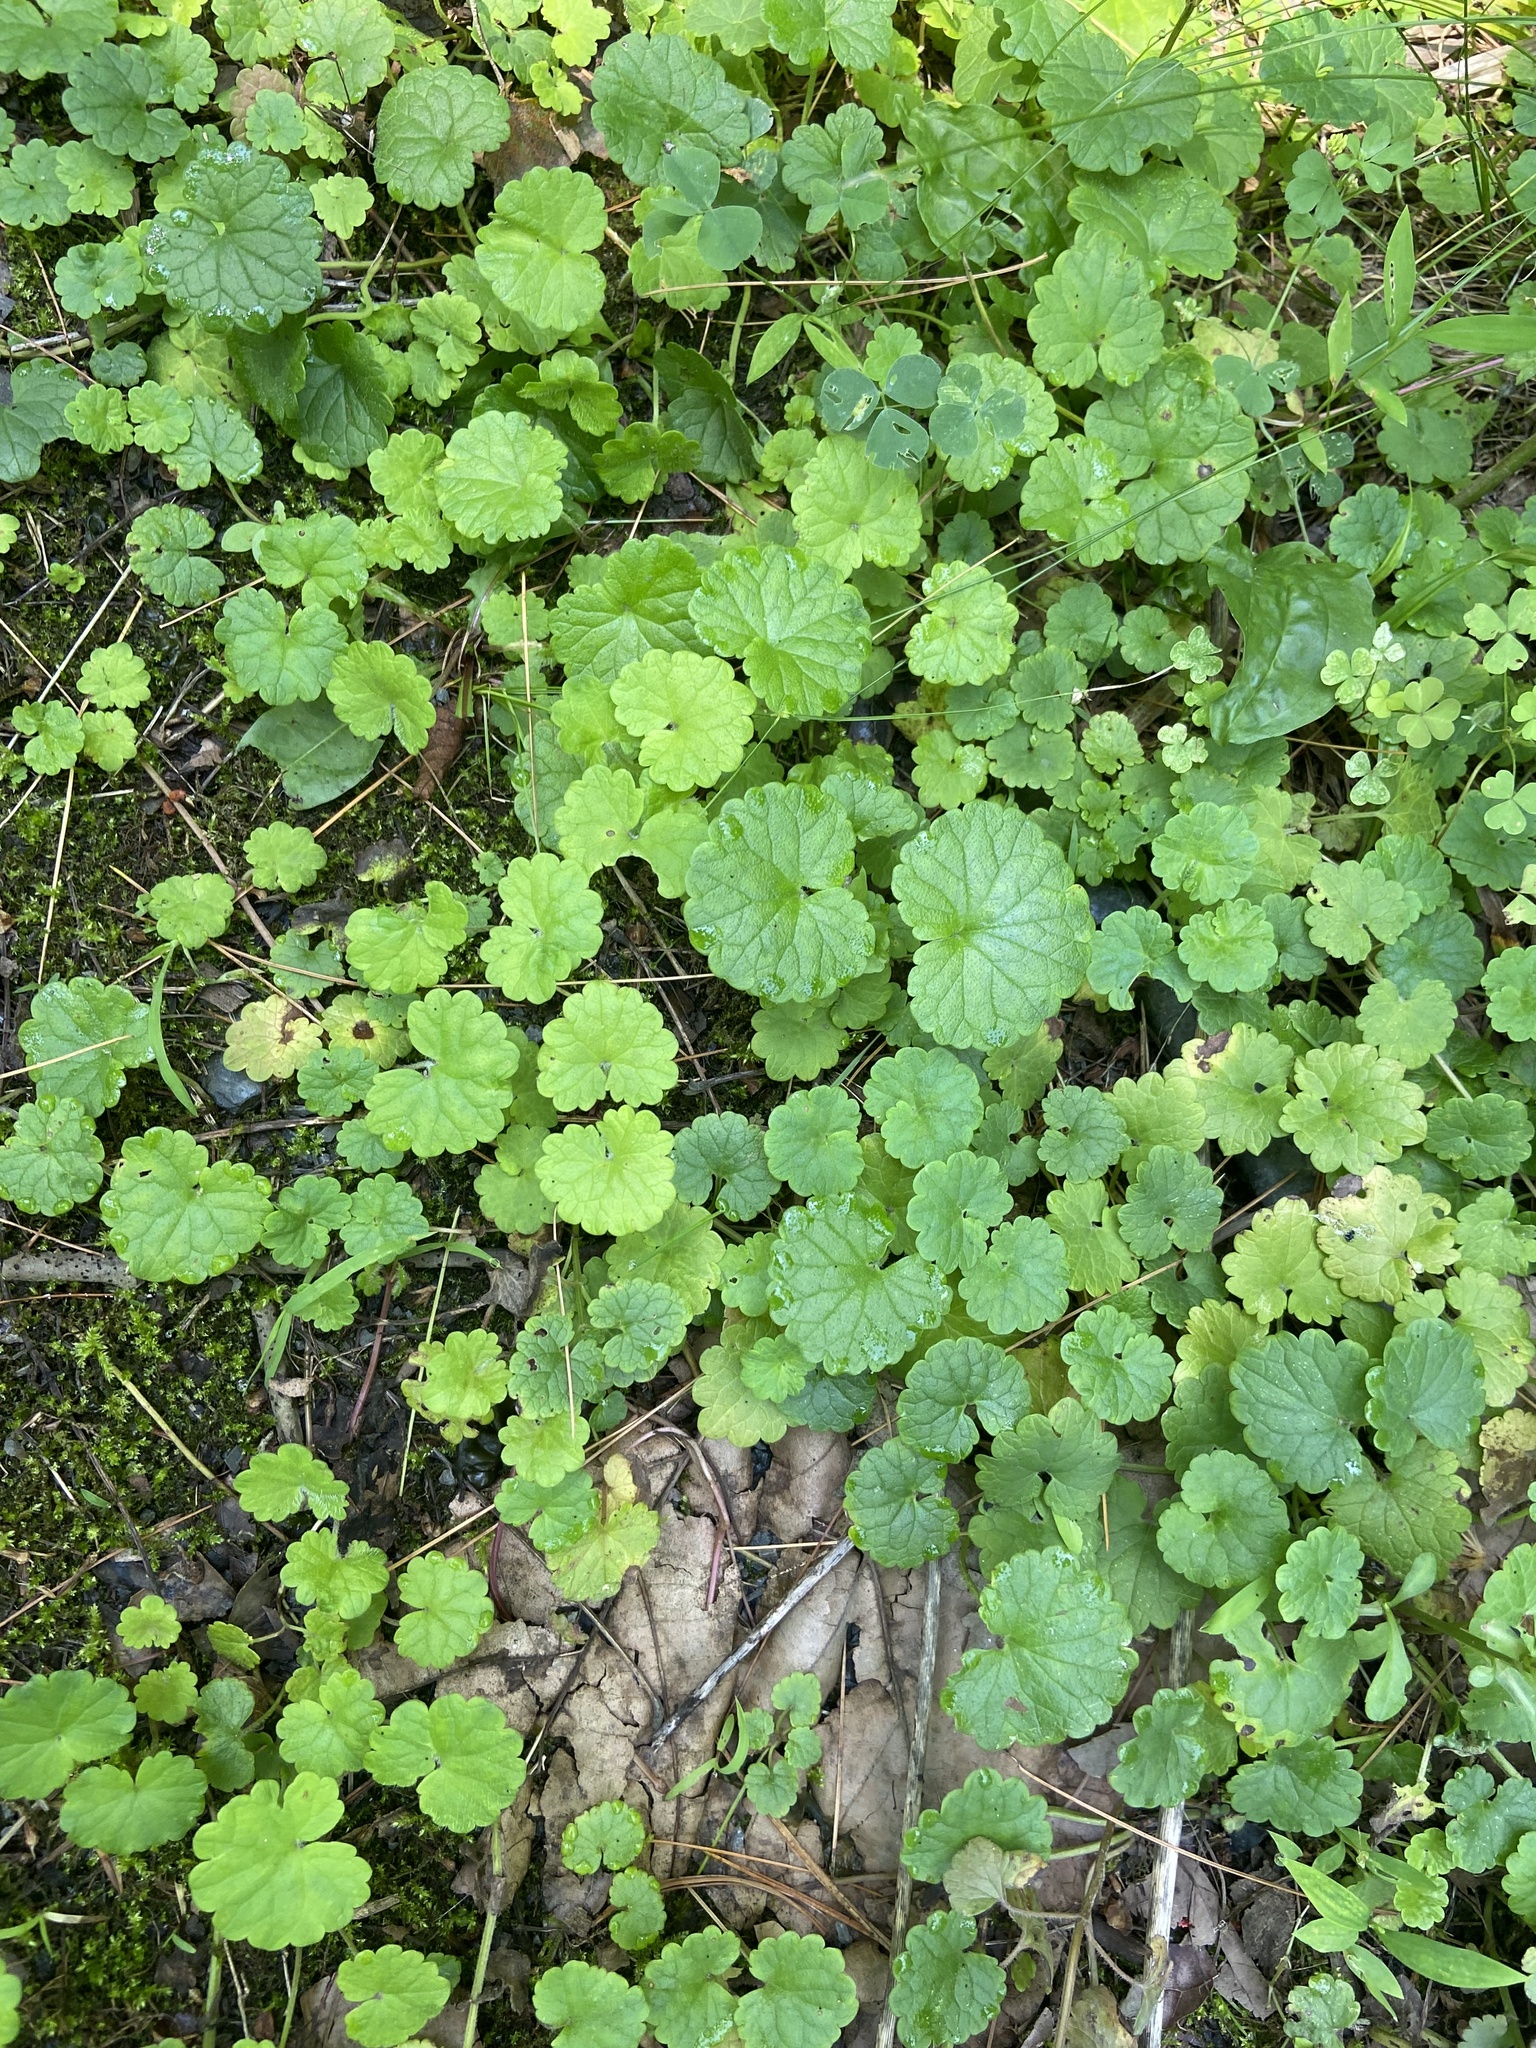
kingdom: Plantae
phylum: Tracheophyta
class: Magnoliopsida
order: Lamiales
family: Lamiaceae
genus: Glechoma
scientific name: Glechoma hederacea
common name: Ground ivy
